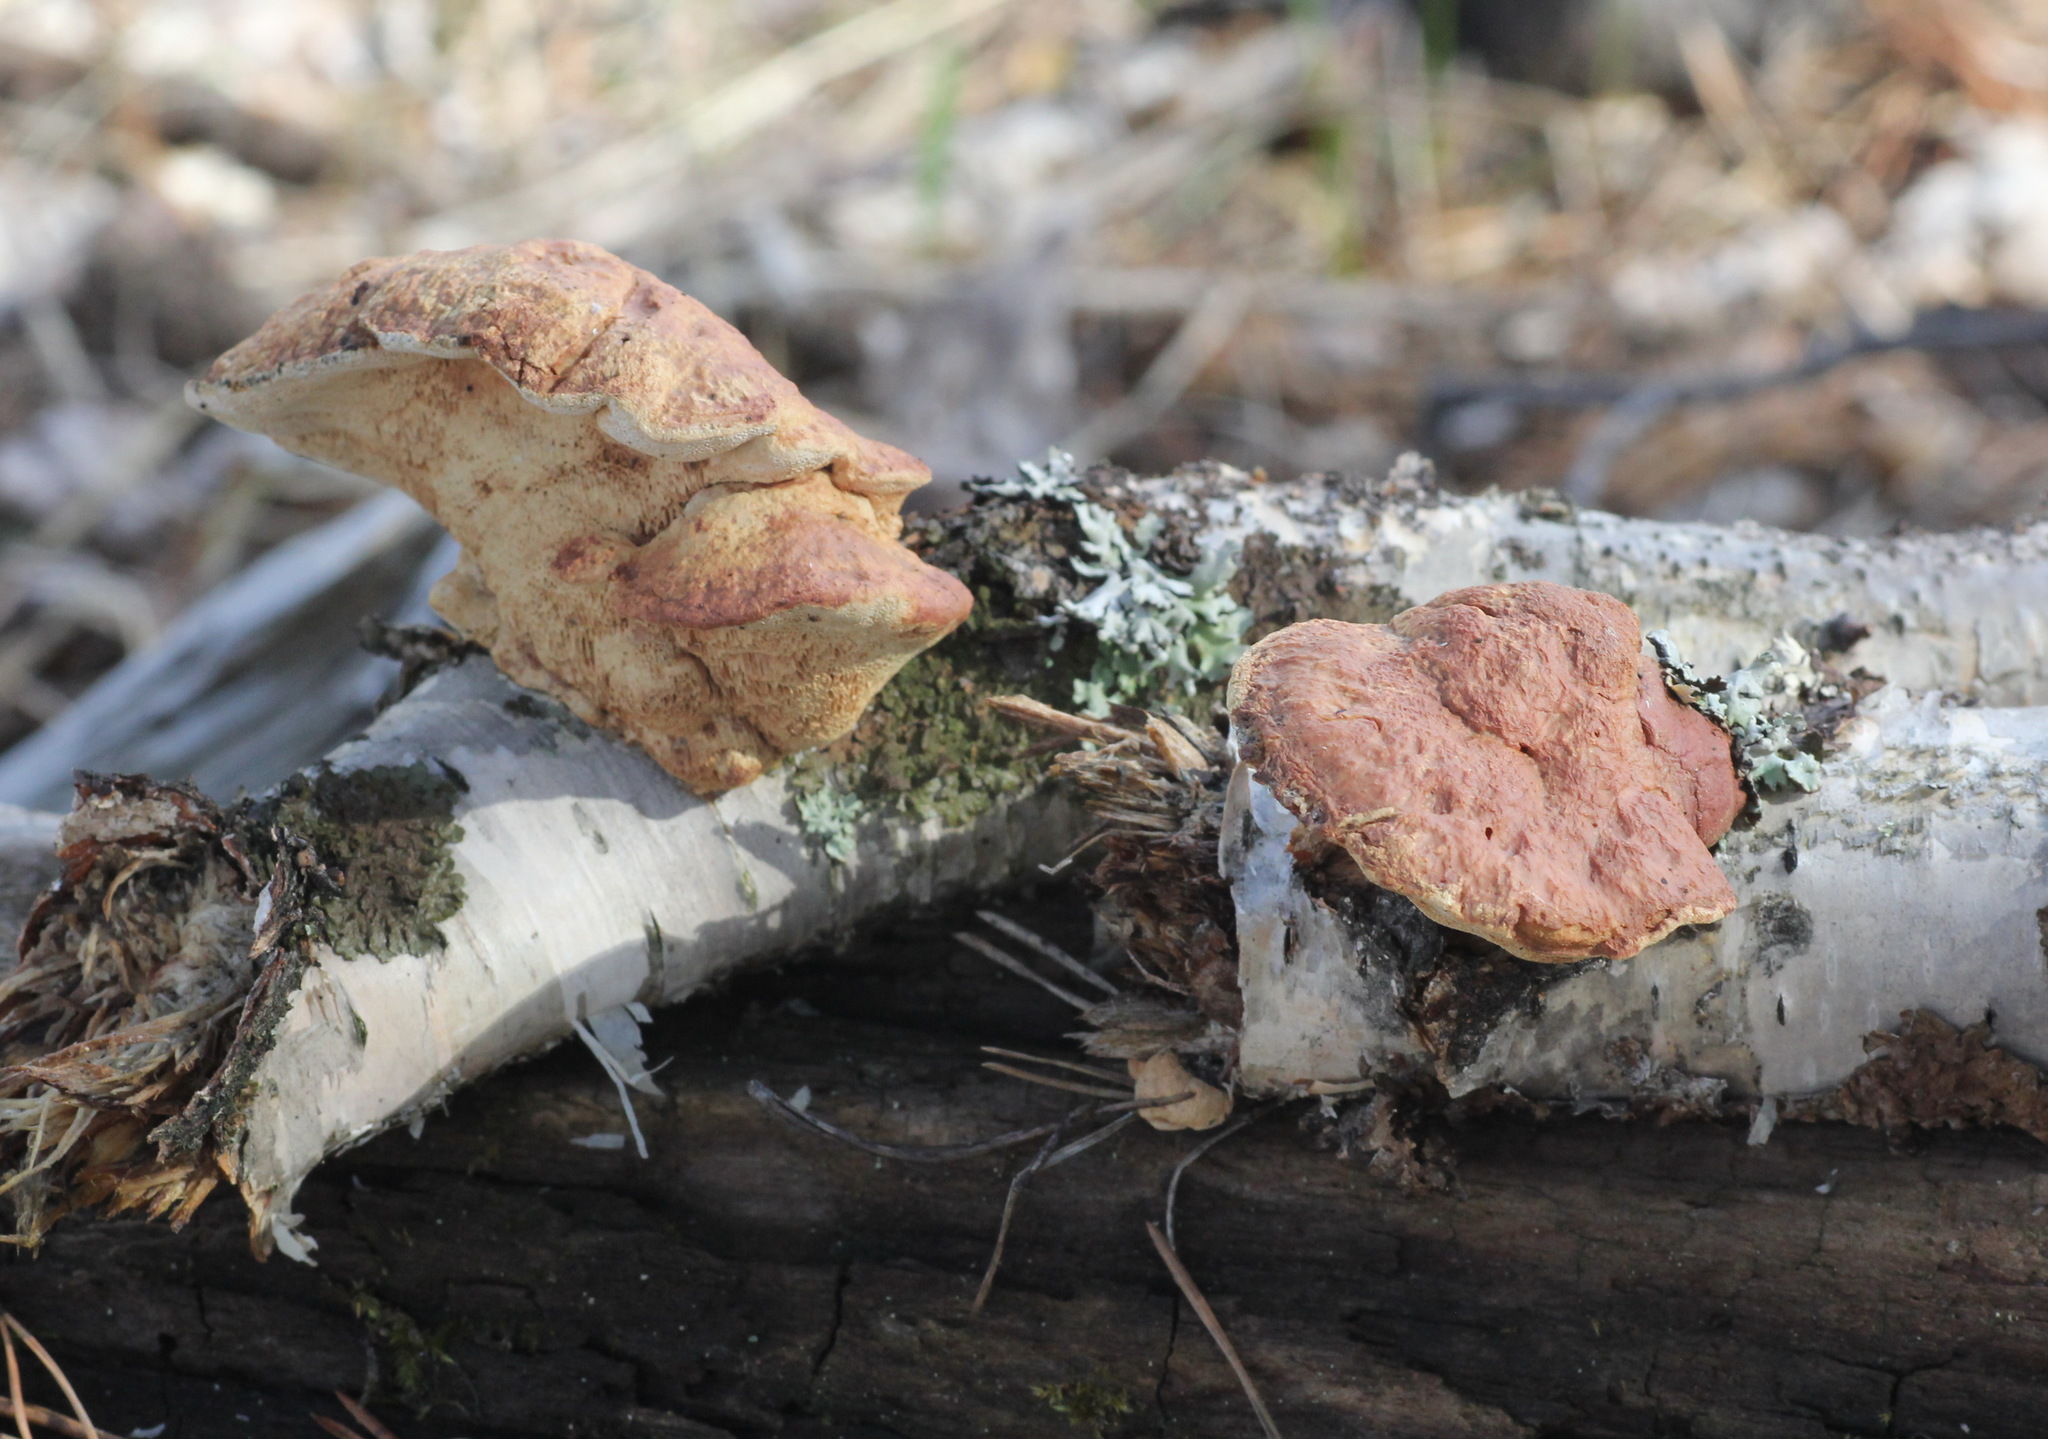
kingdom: Fungi
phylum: Basidiomycota
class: Agaricomycetes
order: Polyporales
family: Phanerochaetaceae
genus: Hapalopilus
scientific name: Hapalopilus rutilans
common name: Tender nesting polypore
